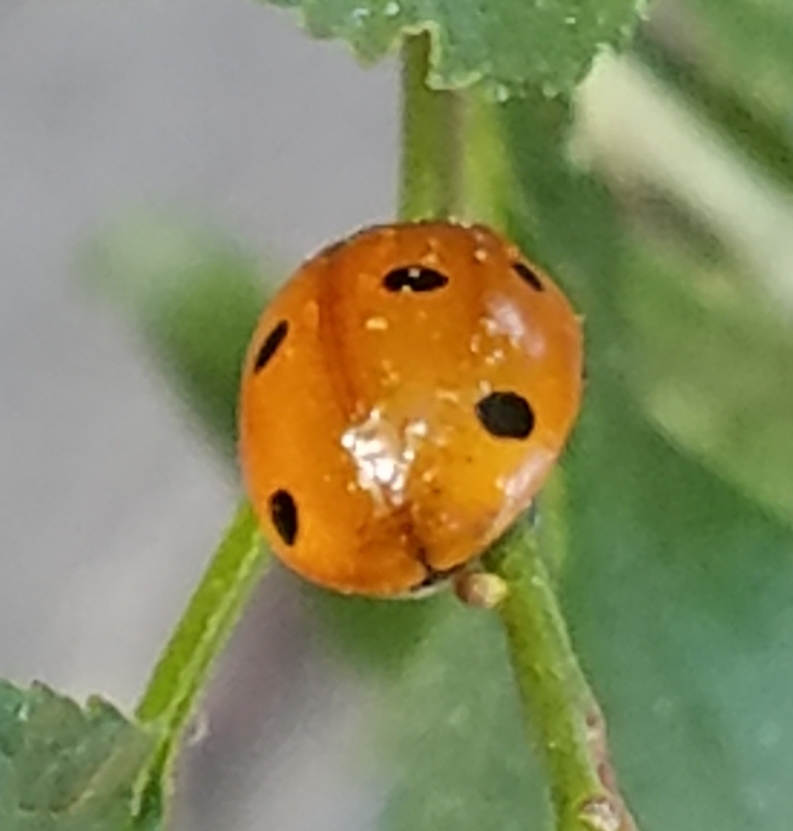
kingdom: Animalia
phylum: Arthropoda
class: Insecta
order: Coleoptera
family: Coccinellidae
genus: Coccinella
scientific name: Coccinella septempunctata
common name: Sevenspotted lady beetle
